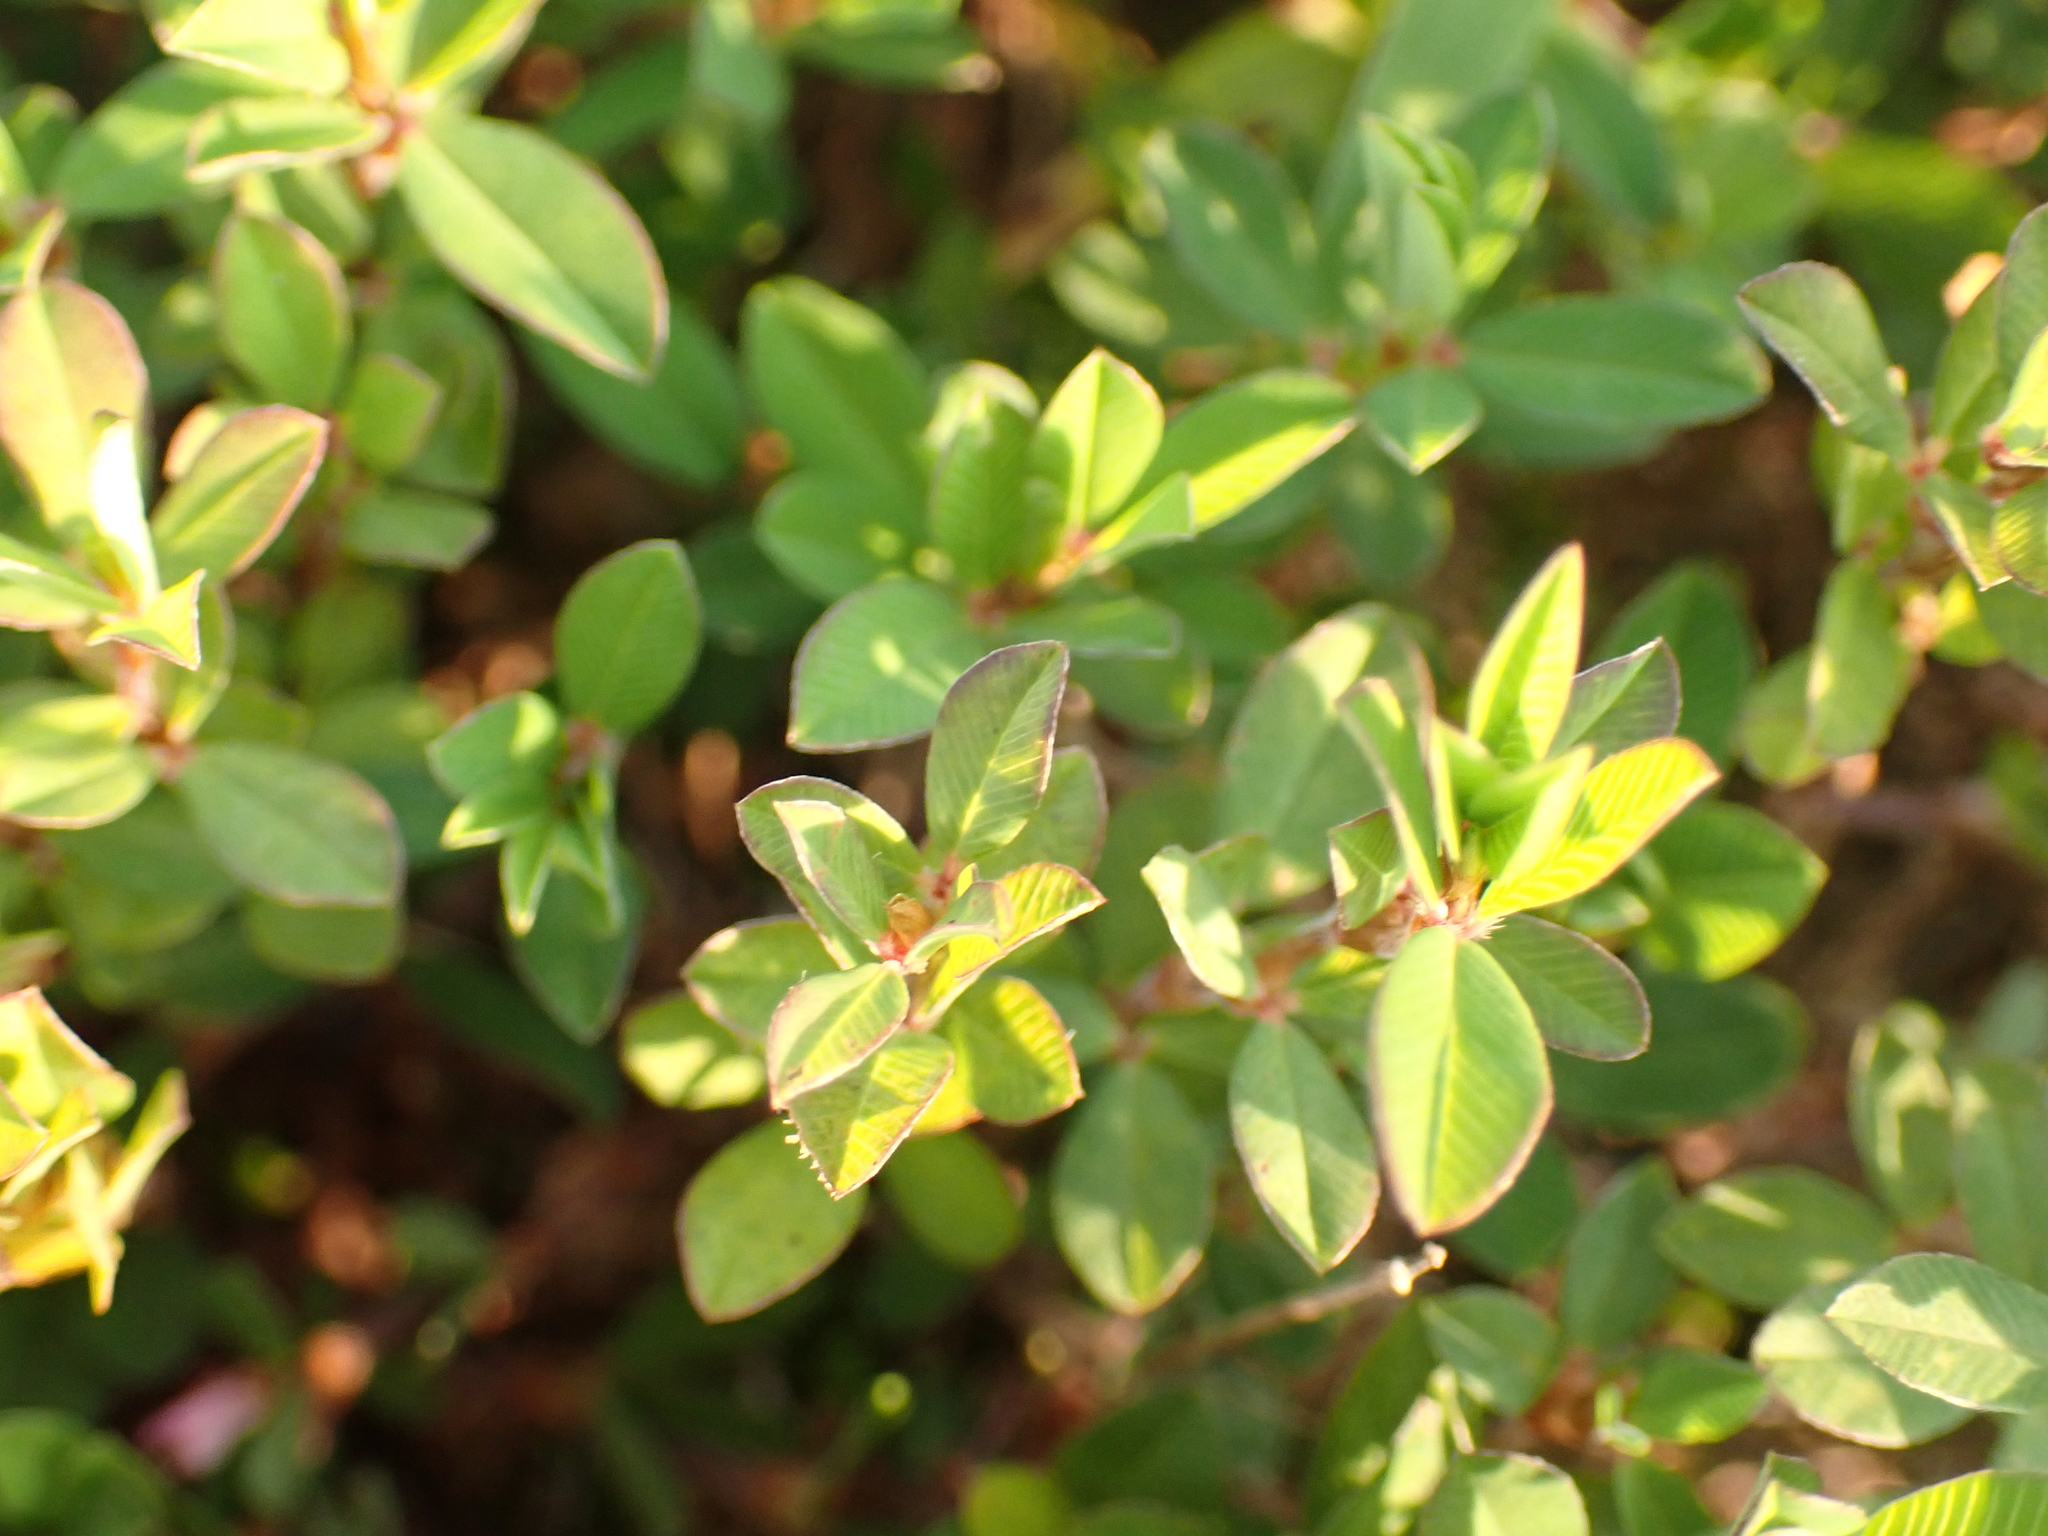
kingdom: Plantae
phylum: Tracheophyta
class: Magnoliopsida
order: Fabales
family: Fabaceae
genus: Kummerowia
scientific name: Kummerowia striata
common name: Japanese clover
